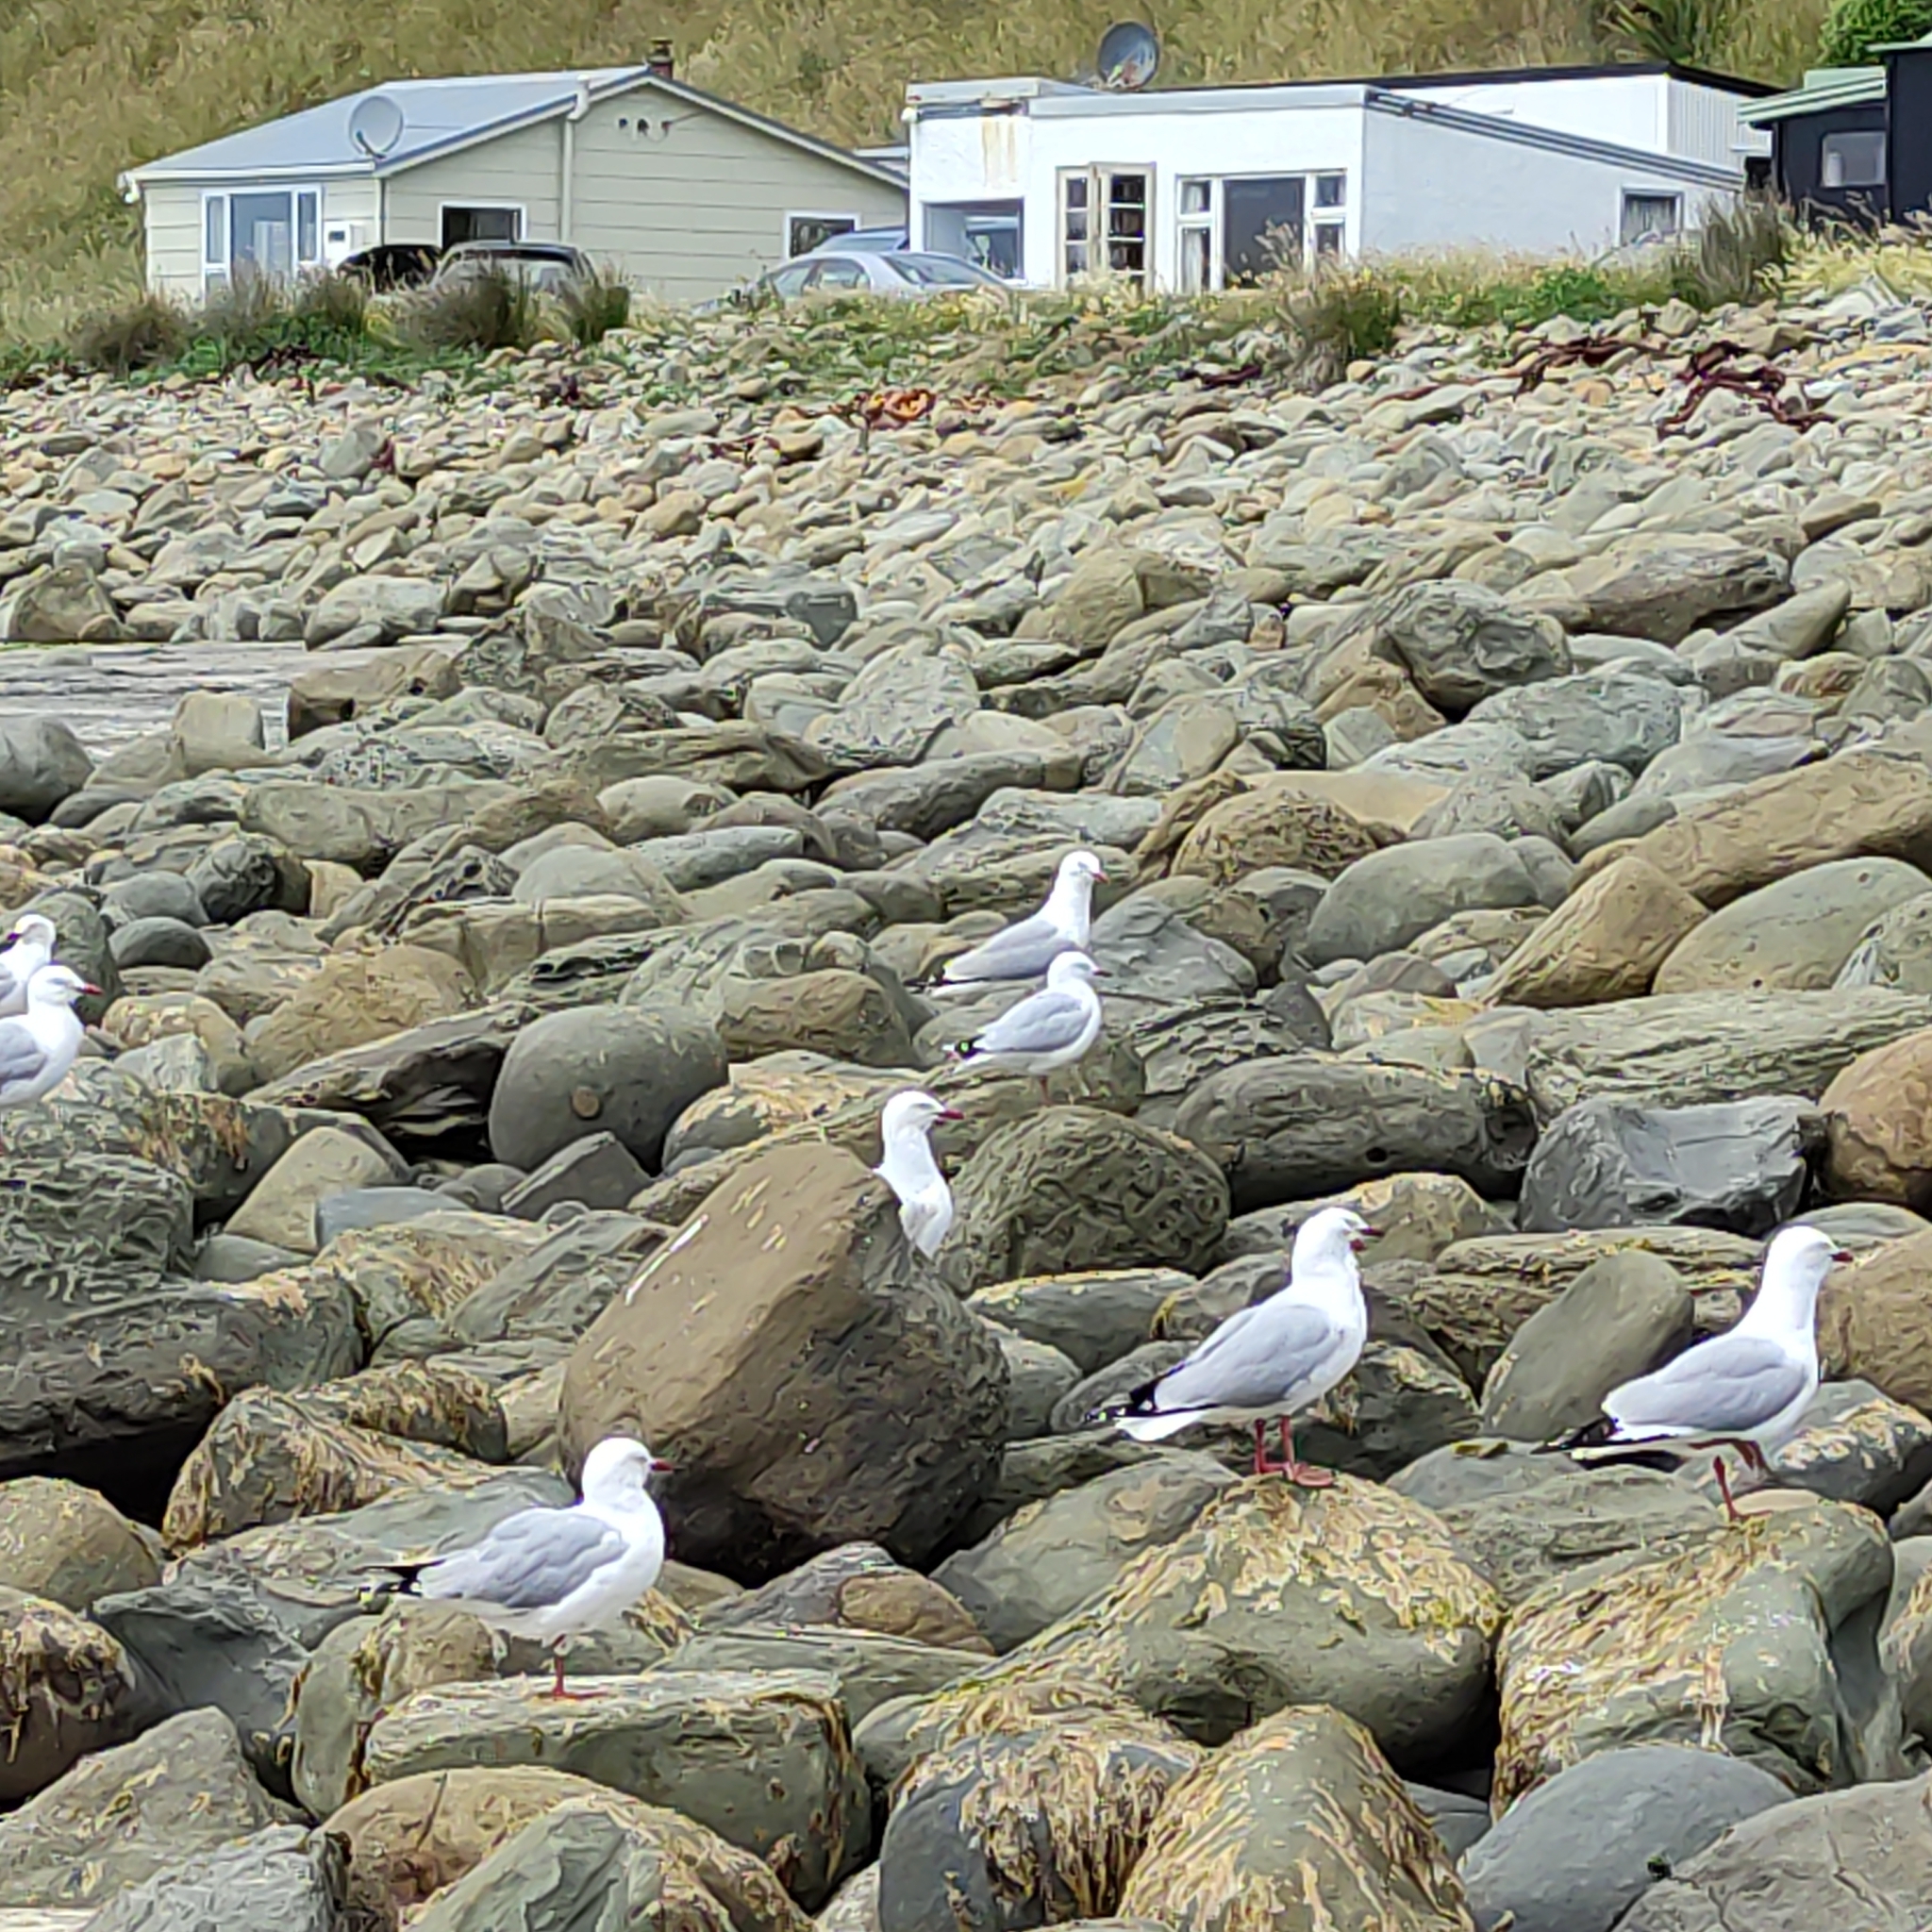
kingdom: Animalia
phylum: Chordata
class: Aves
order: Charadriiformes
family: Laridae
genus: Chroicocephalus
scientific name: Chroicocephalus novaehollandiae
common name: Silver gull
